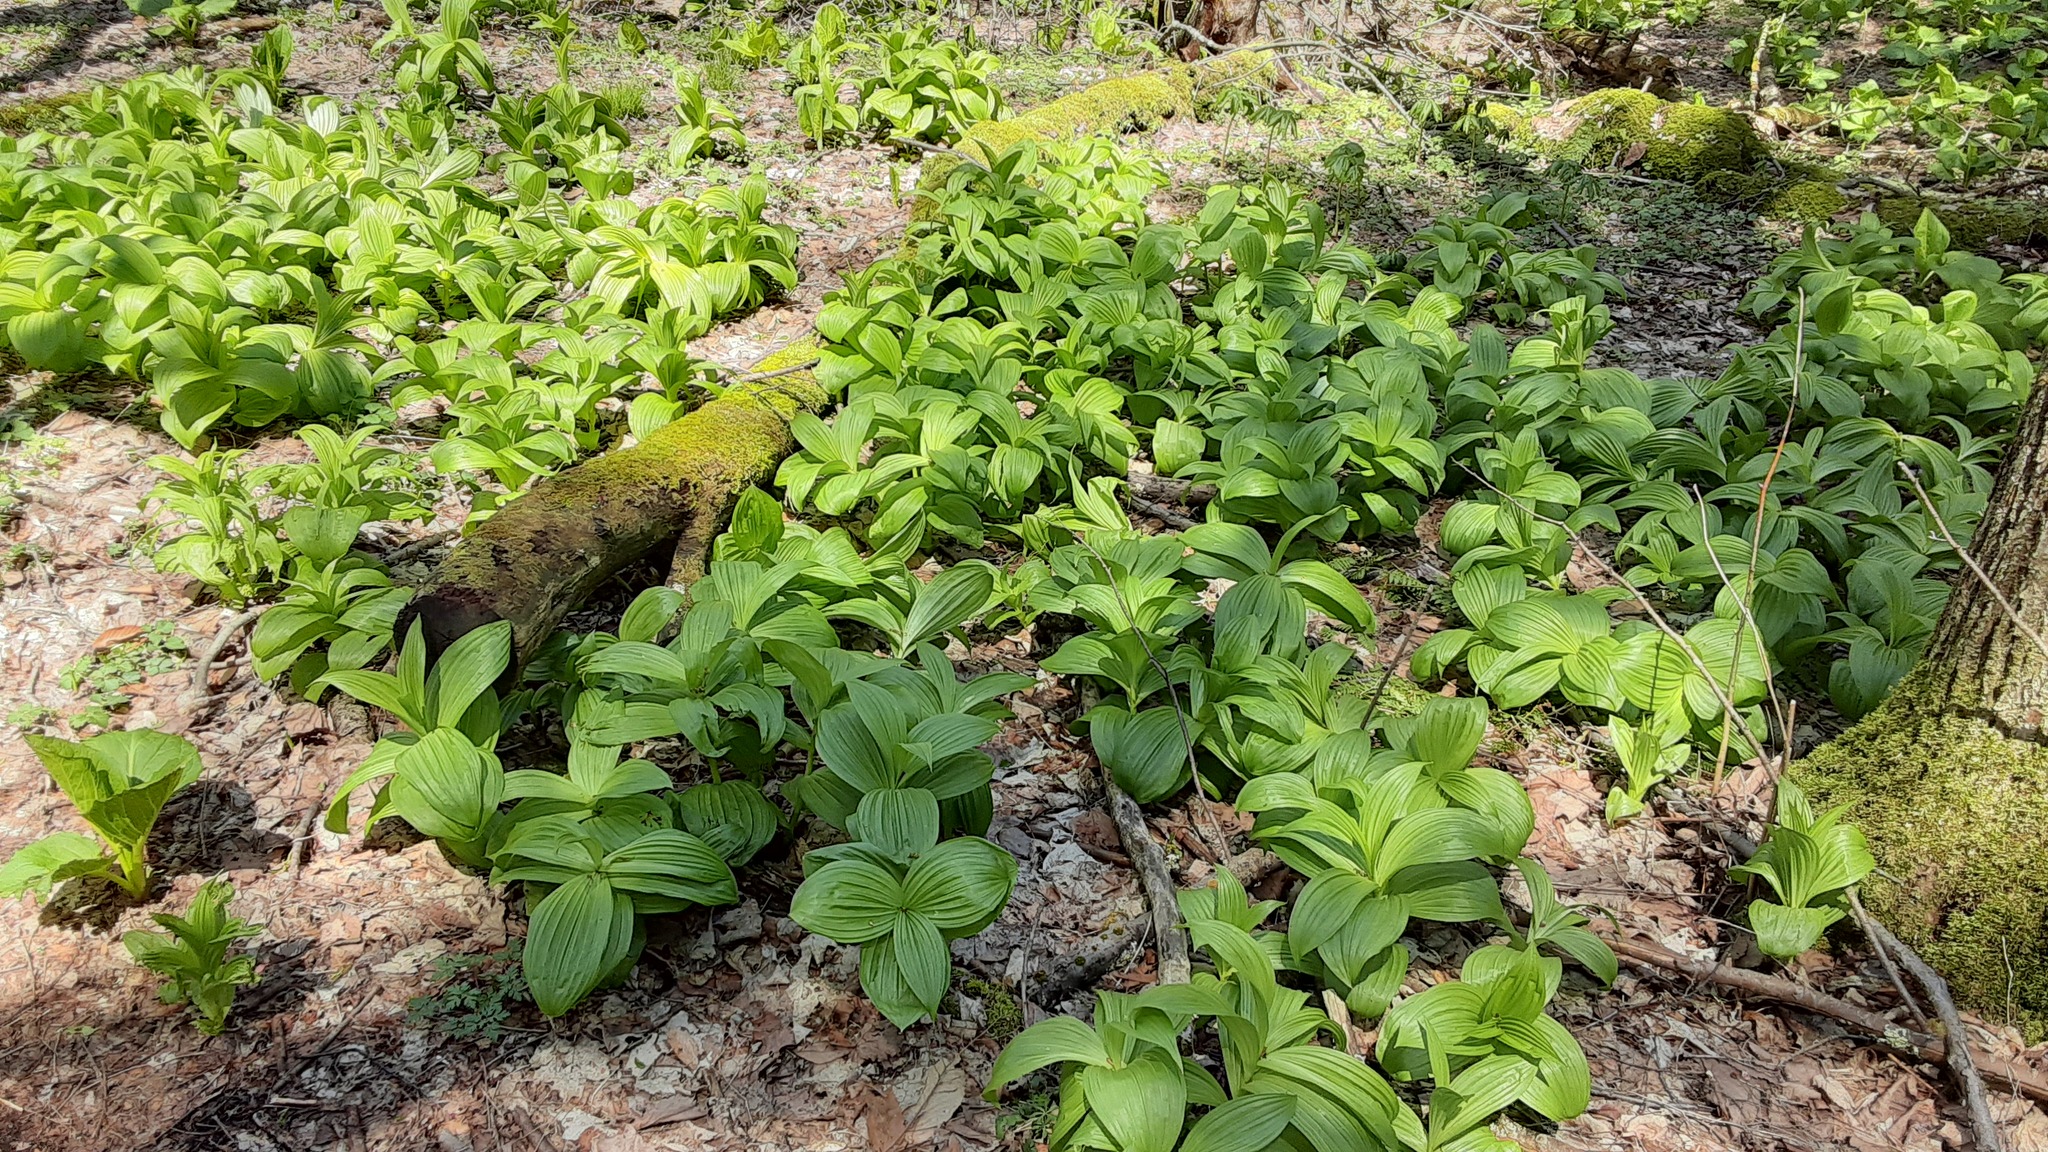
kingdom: Plantae
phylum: Tracheophyta
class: Liliopsida
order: Liliales
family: Melanthiaceae
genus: Veratrum
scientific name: Veratrum viride
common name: American false hellebore
